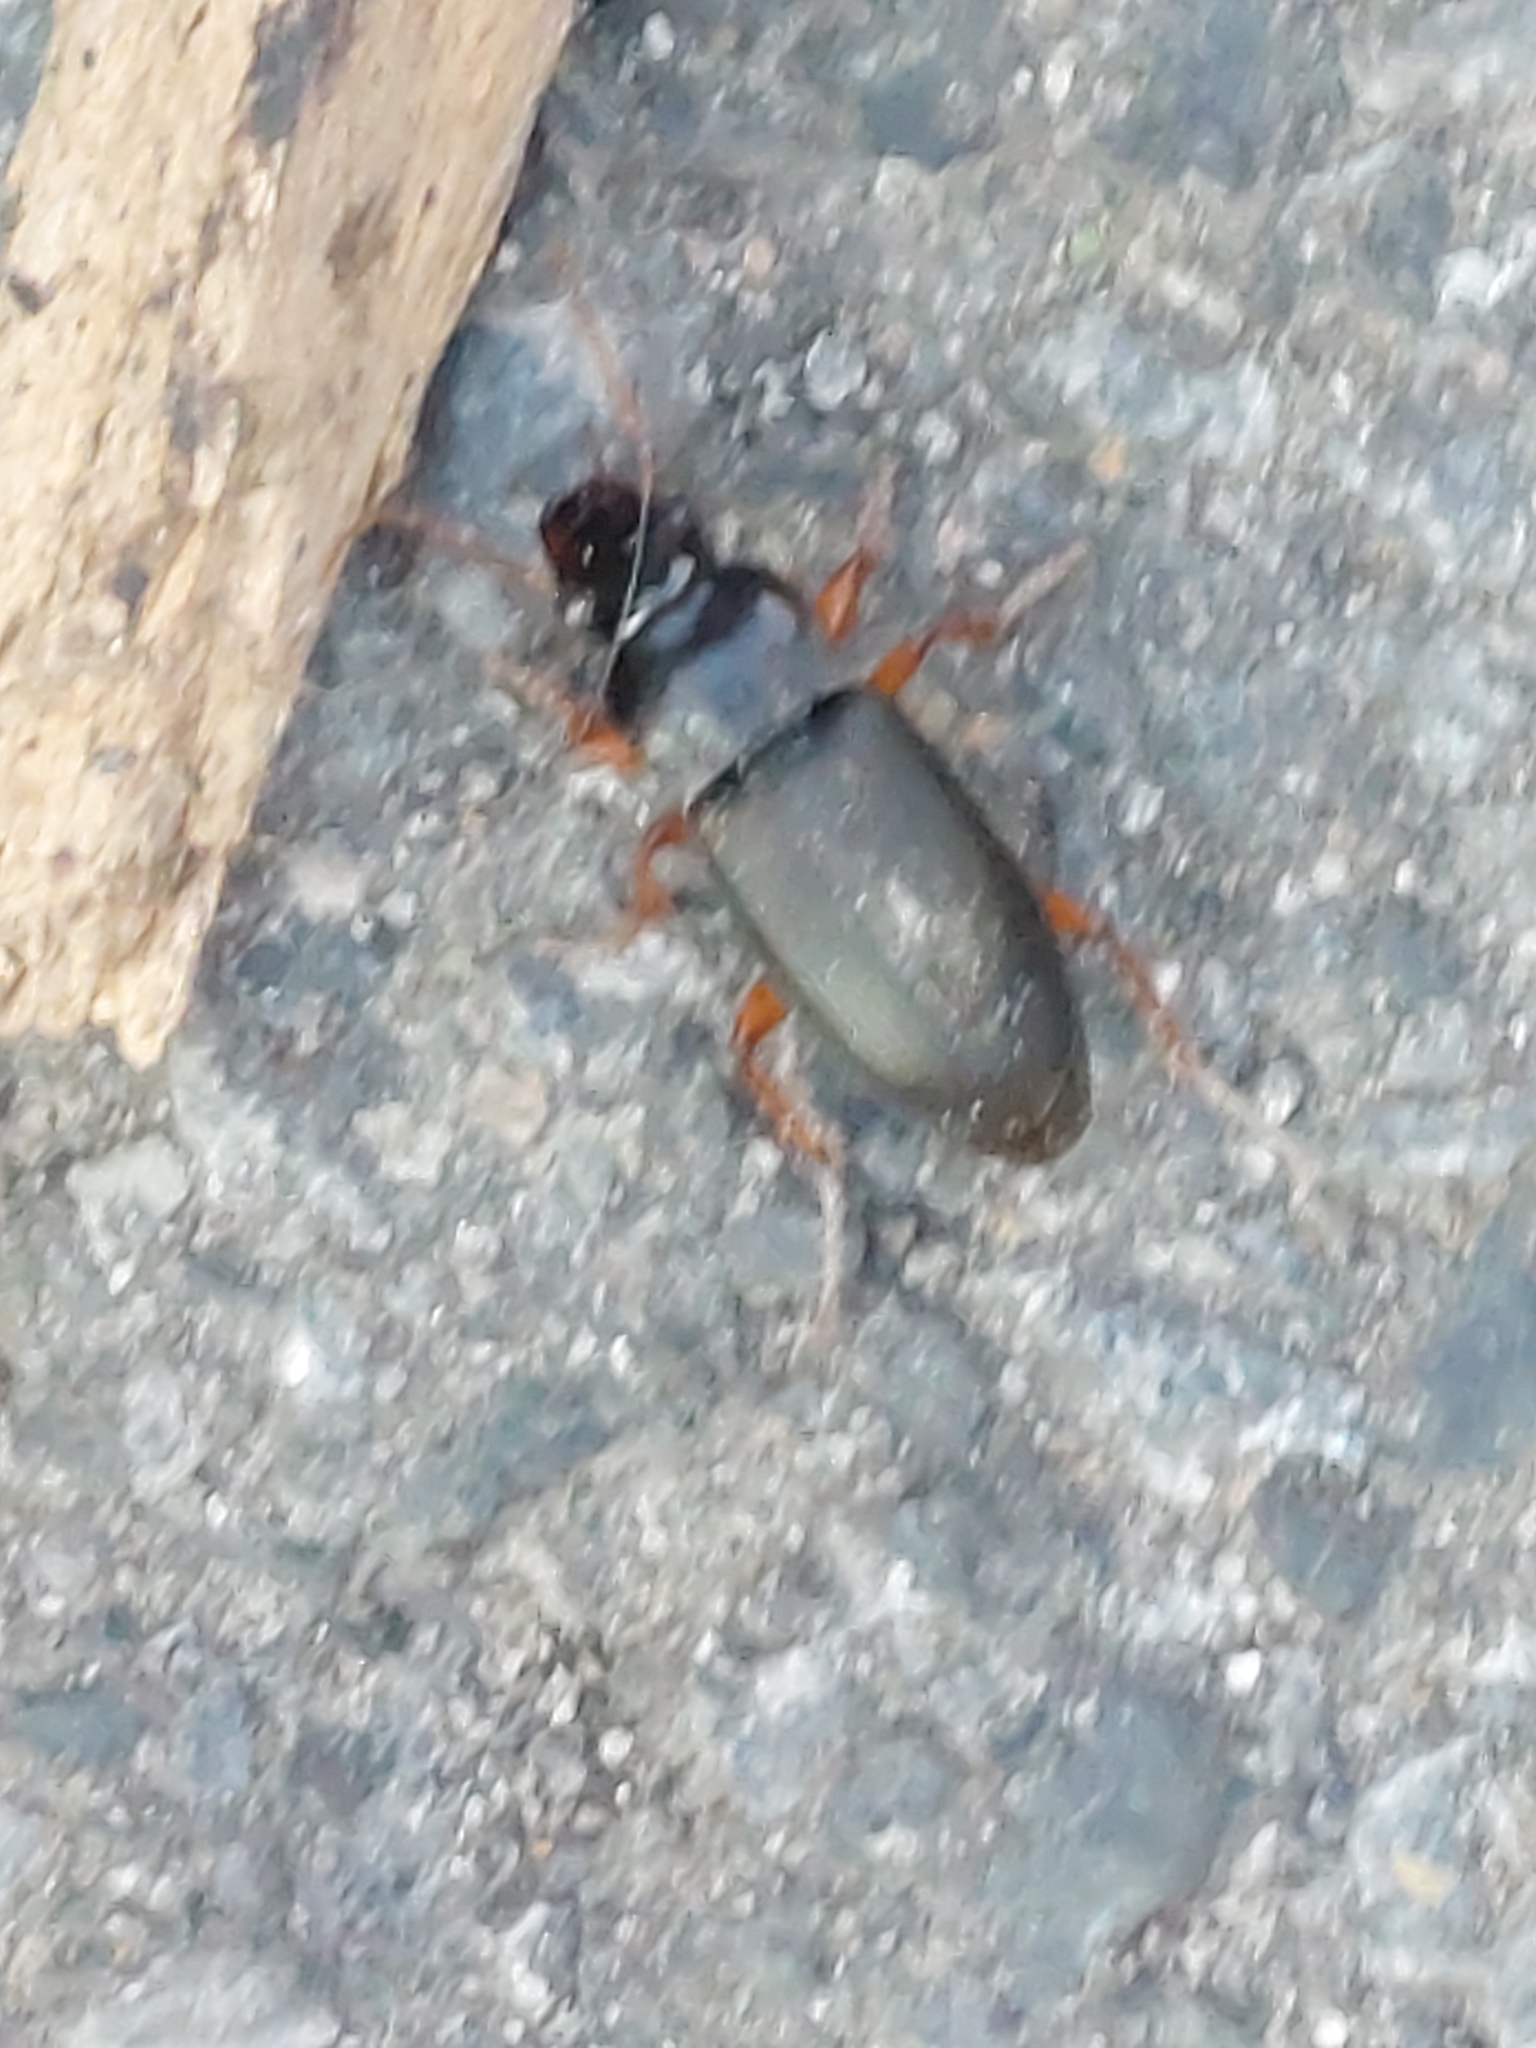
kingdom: Animalia
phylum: Arthropoda
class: Insecta
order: Coleoptera
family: Carabidae
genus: Harpalus
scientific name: Harpalus rufipes
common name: Strawberry harp ground beetle
